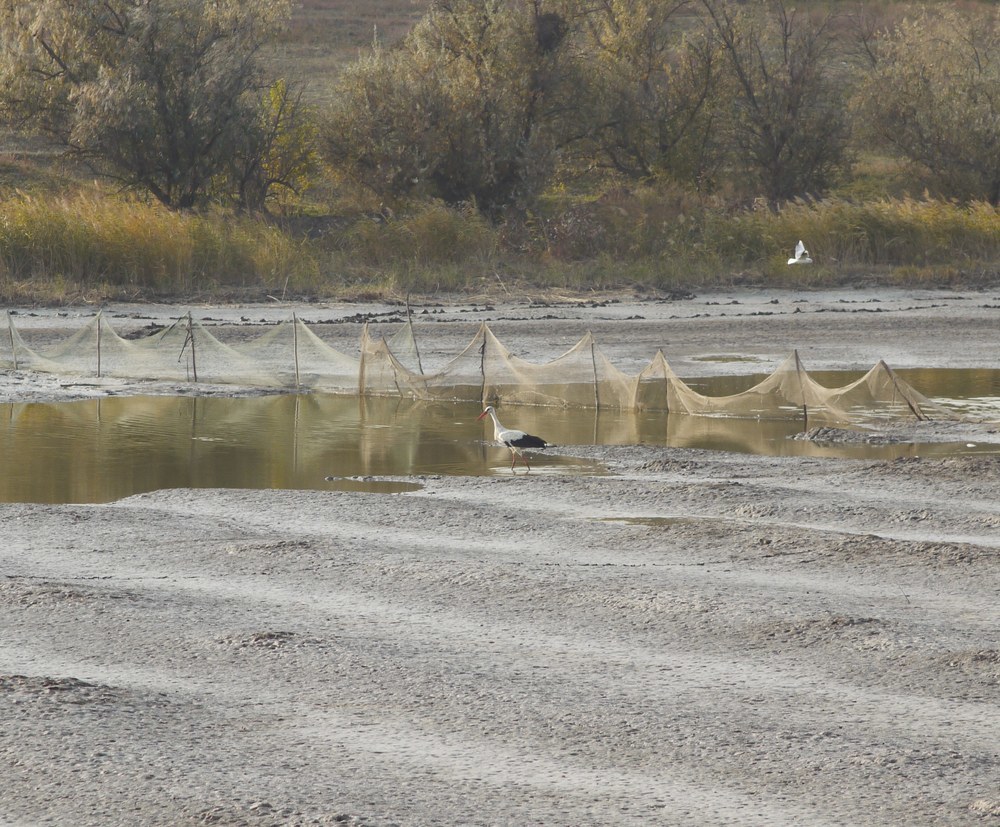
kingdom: Animalia
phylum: Chordata
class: Aves
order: Ciconiiformes
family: Ciconiidae
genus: Ciconia
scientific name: Ciconia ciconia
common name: White stork
